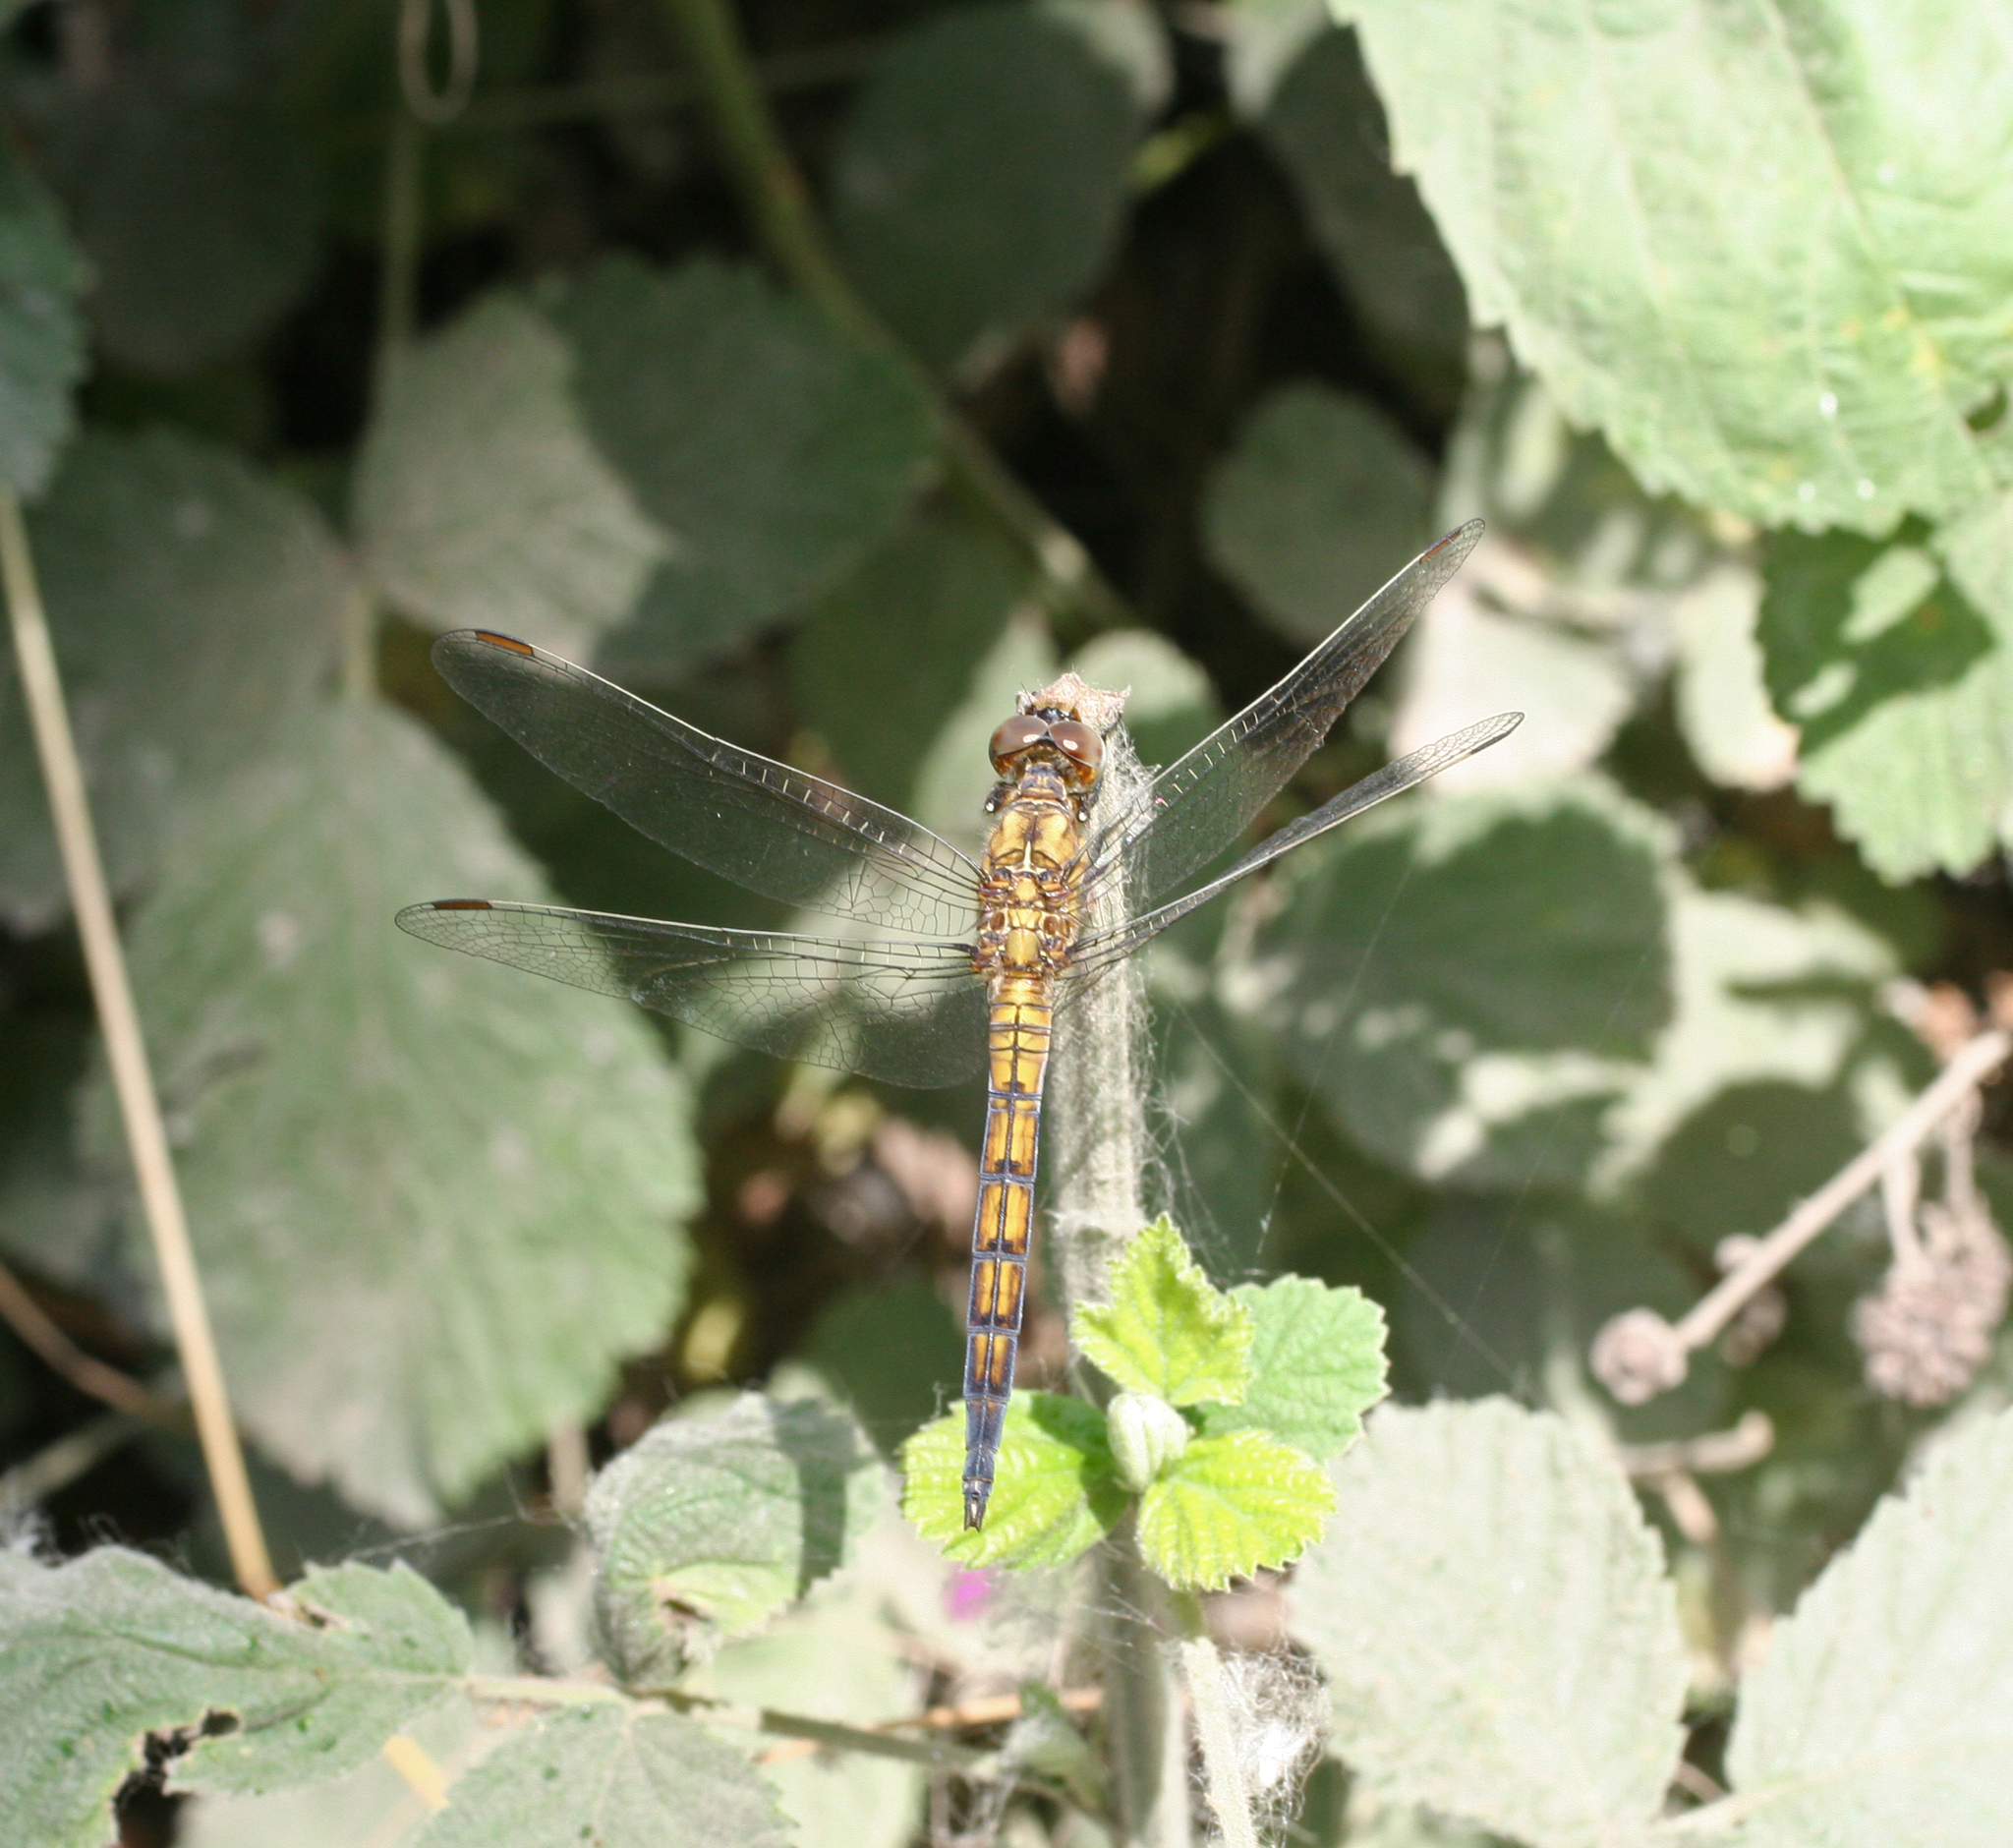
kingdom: Animalia
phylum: Arthropoda
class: Insecta
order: Odonata
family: Libellulidae
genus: Orthetrum
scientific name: Orthetrum coerulescens
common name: Keeled skimmer
